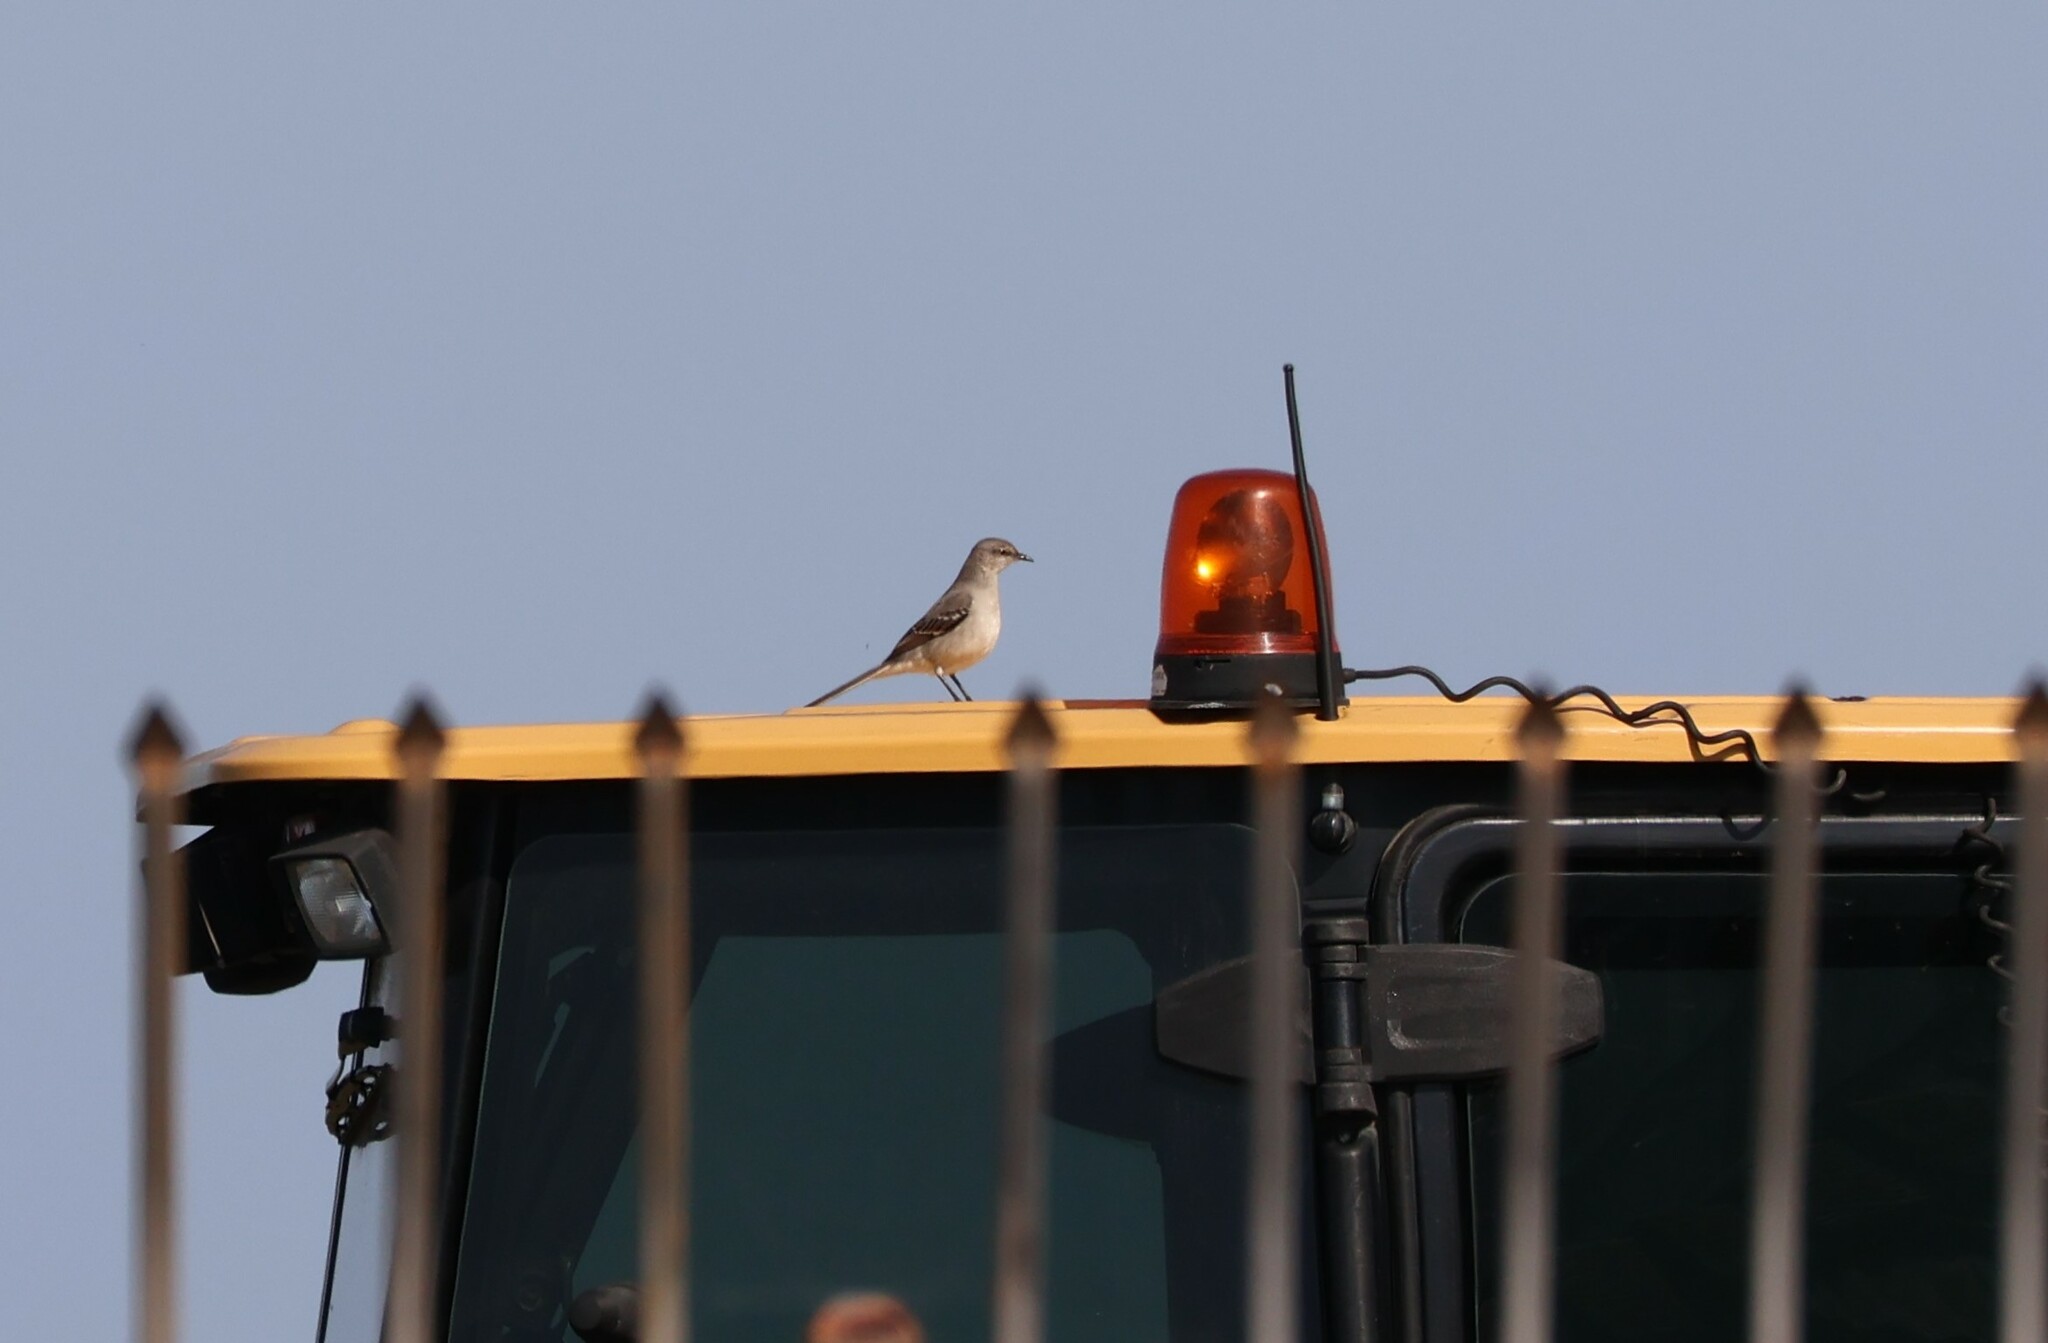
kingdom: Animalia
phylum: Chordata
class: Aves
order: Passeriformes
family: Mimidae
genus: Mimus
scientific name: Mimus polyglottos
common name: Northern mockingbird
